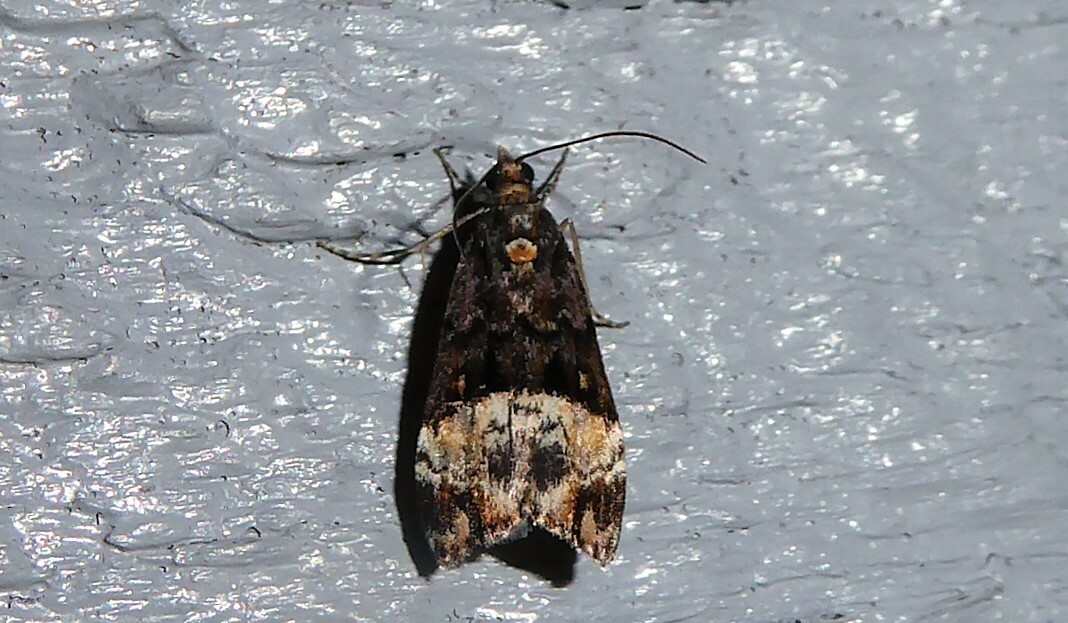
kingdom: Animalia
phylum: Arthropoda
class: Insecta
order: Lepidoptera
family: Crambidae
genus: Scoparia
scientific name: Scoparia minusculalis
